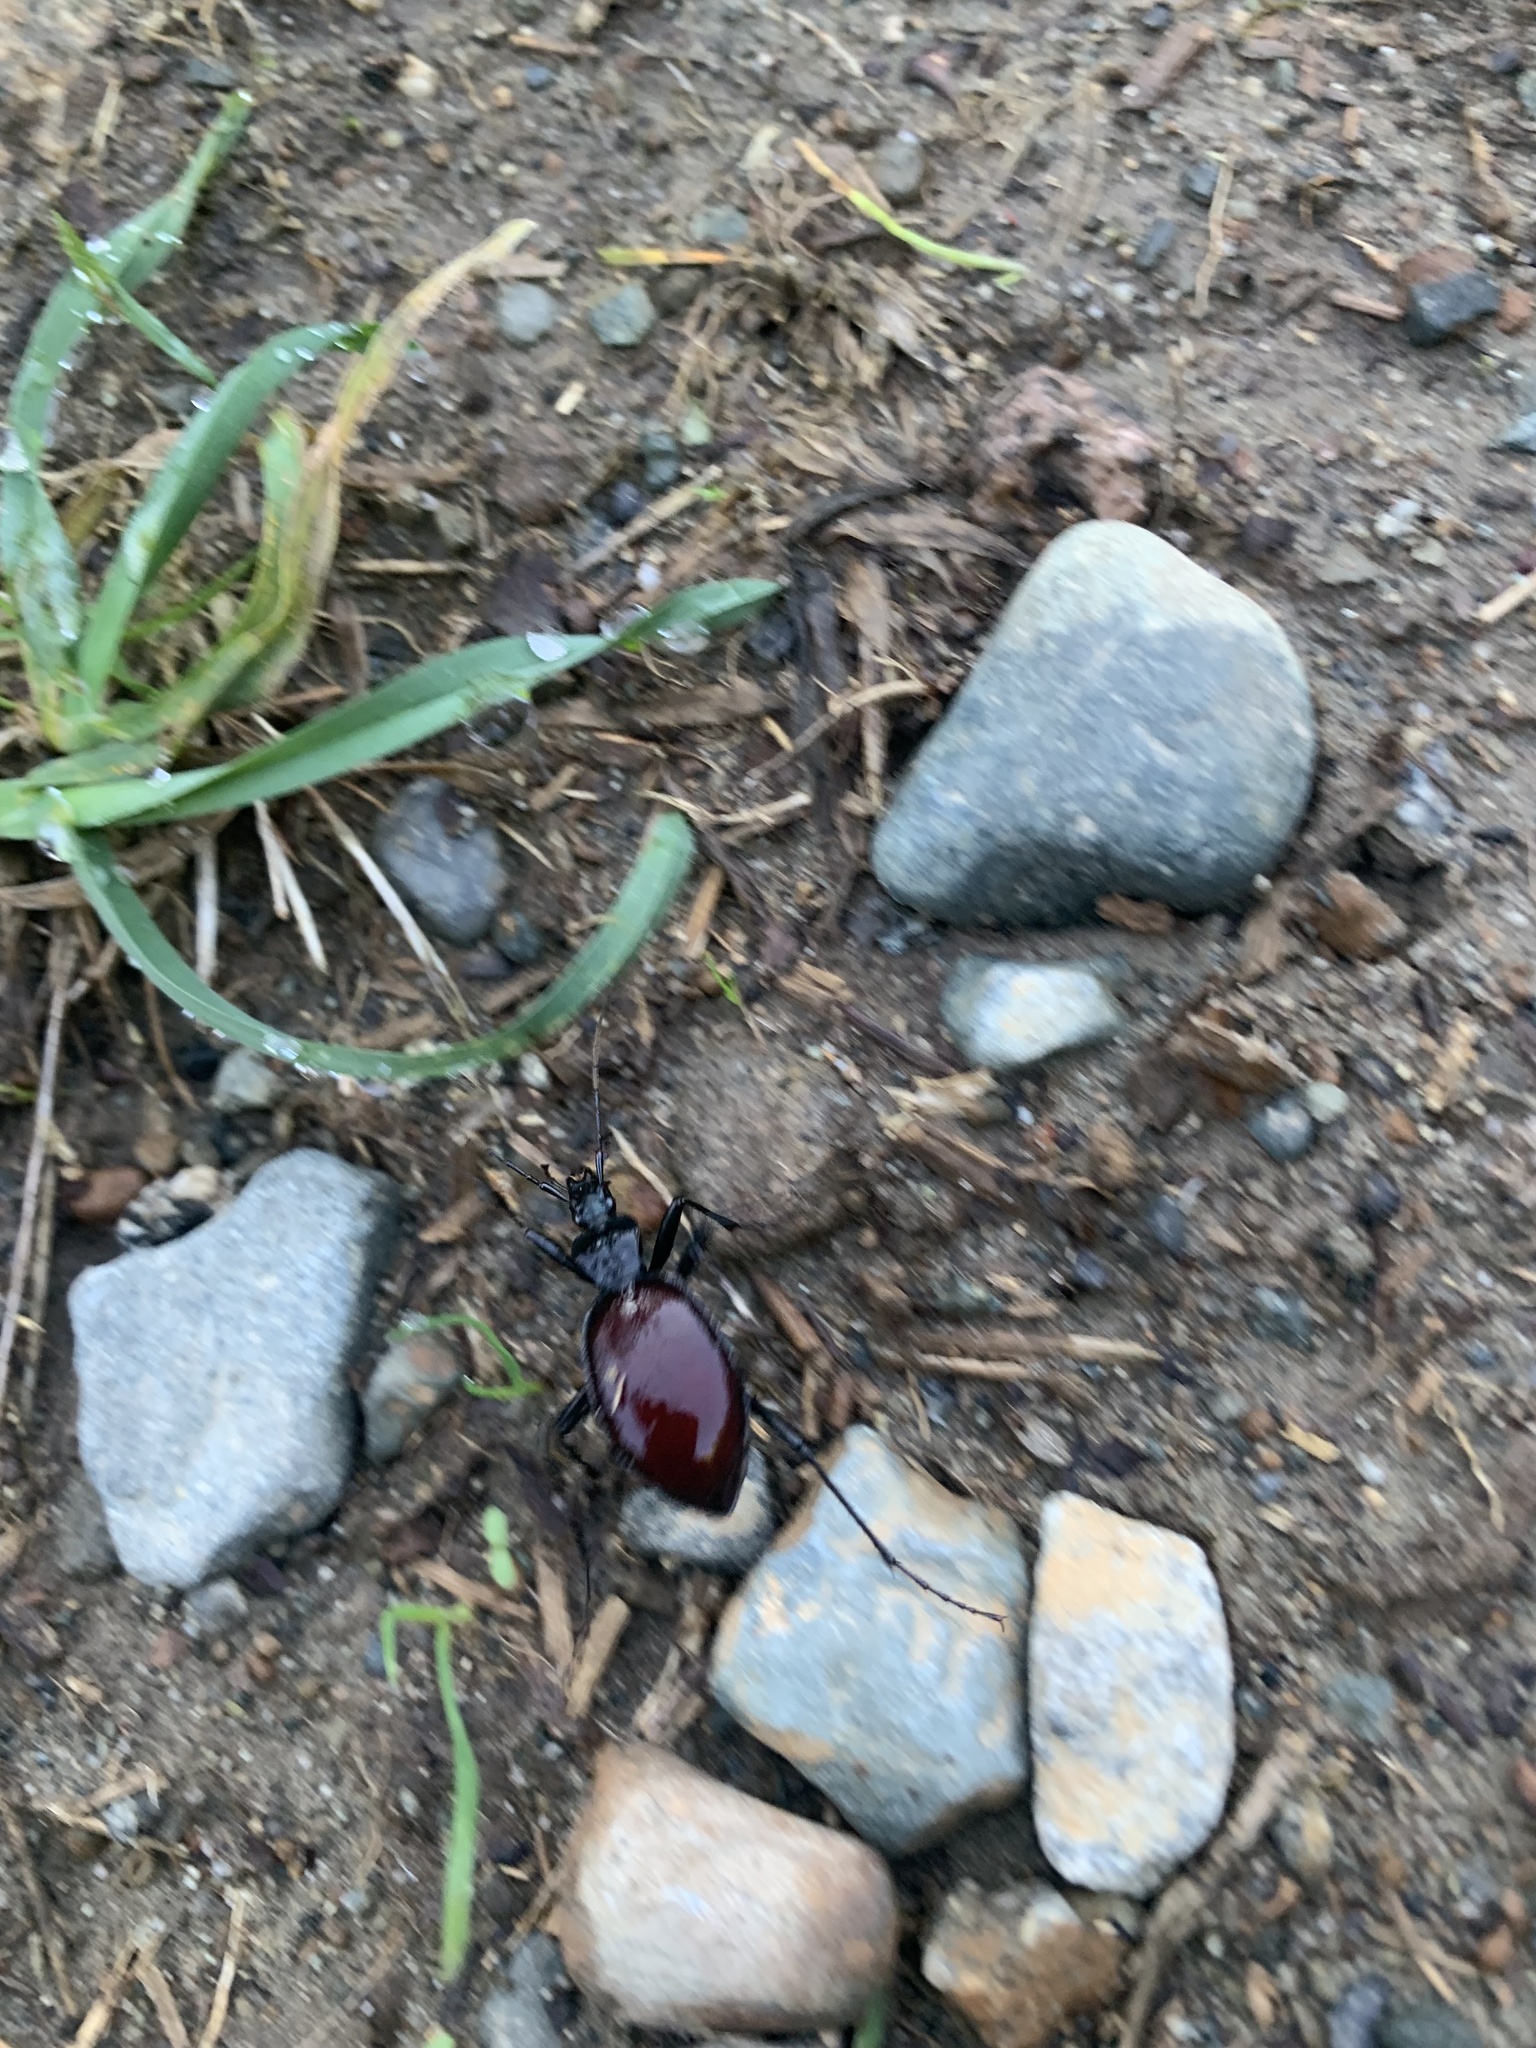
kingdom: Animalia
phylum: Arthropoda
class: Insecta
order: Coleoptera
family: Carabidae
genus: Scaphinotus
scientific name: Scaphinotus angusticollis
